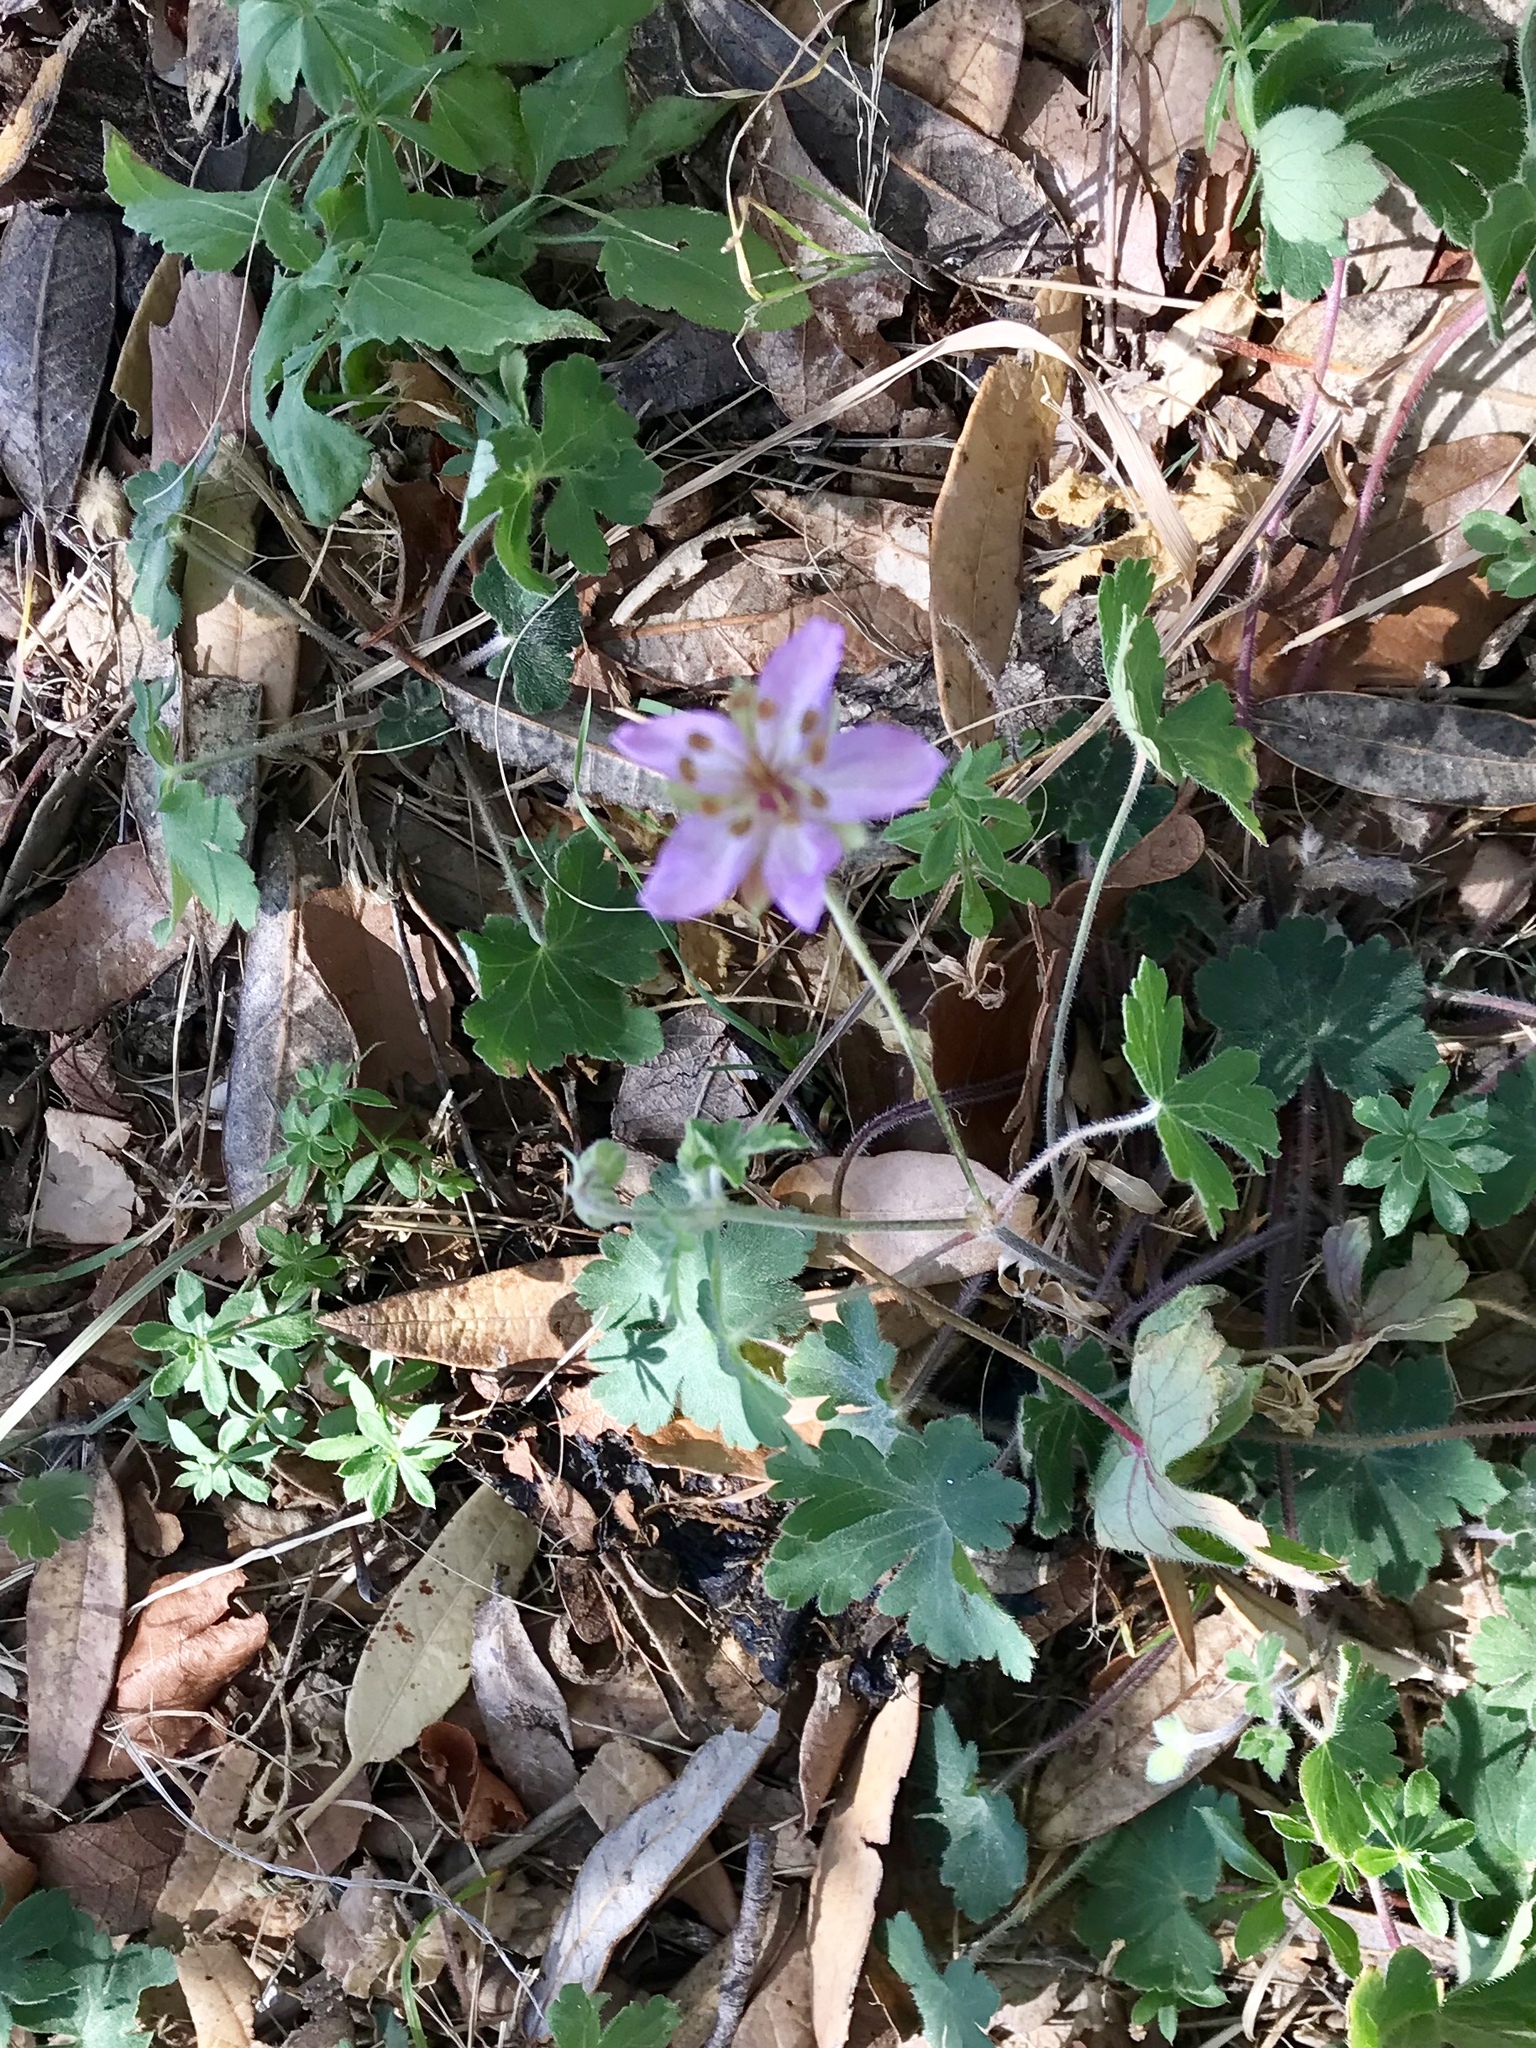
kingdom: Plantae
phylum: Tracheophyta
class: Magnoliopsida
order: Geraniales
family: Geraniaceae
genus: Geranium
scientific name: Geranium caespitosum
